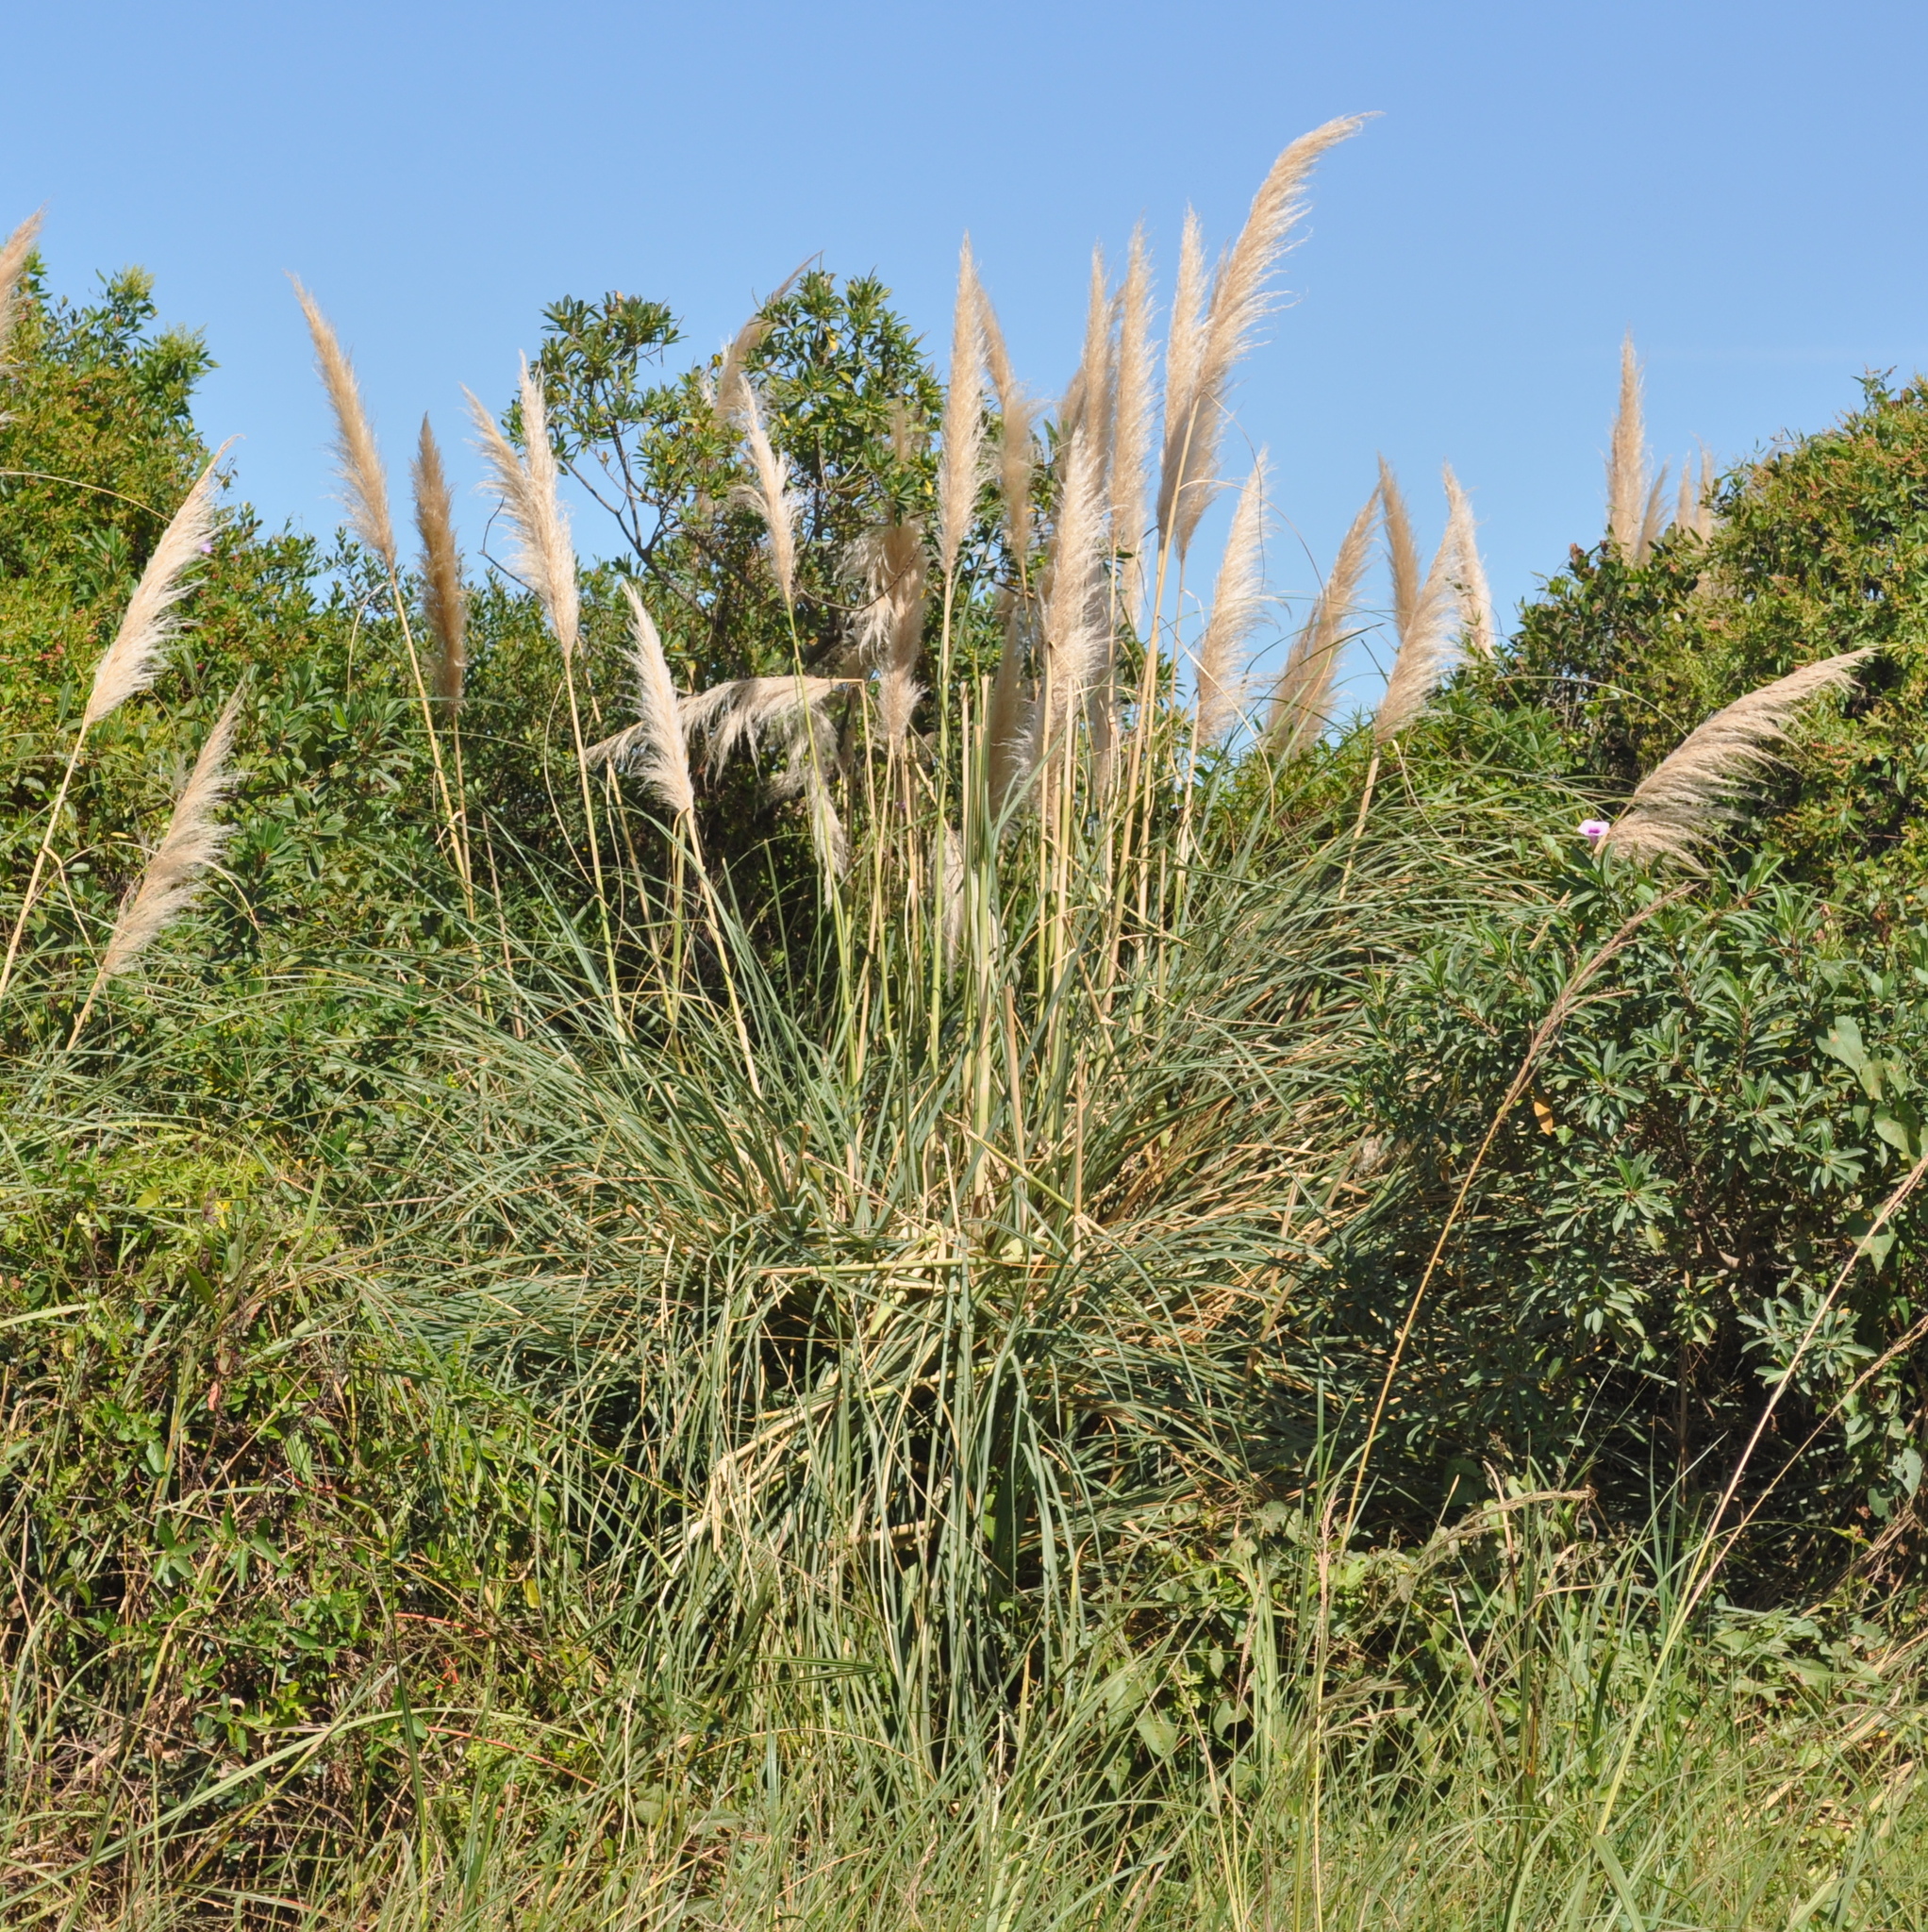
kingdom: Plantae
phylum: Tracheophyta
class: Liliopsida
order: Poales
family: Poaceae
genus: Cortaderia
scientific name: Cortaderia selloana
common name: Uruguayan pampas grass
